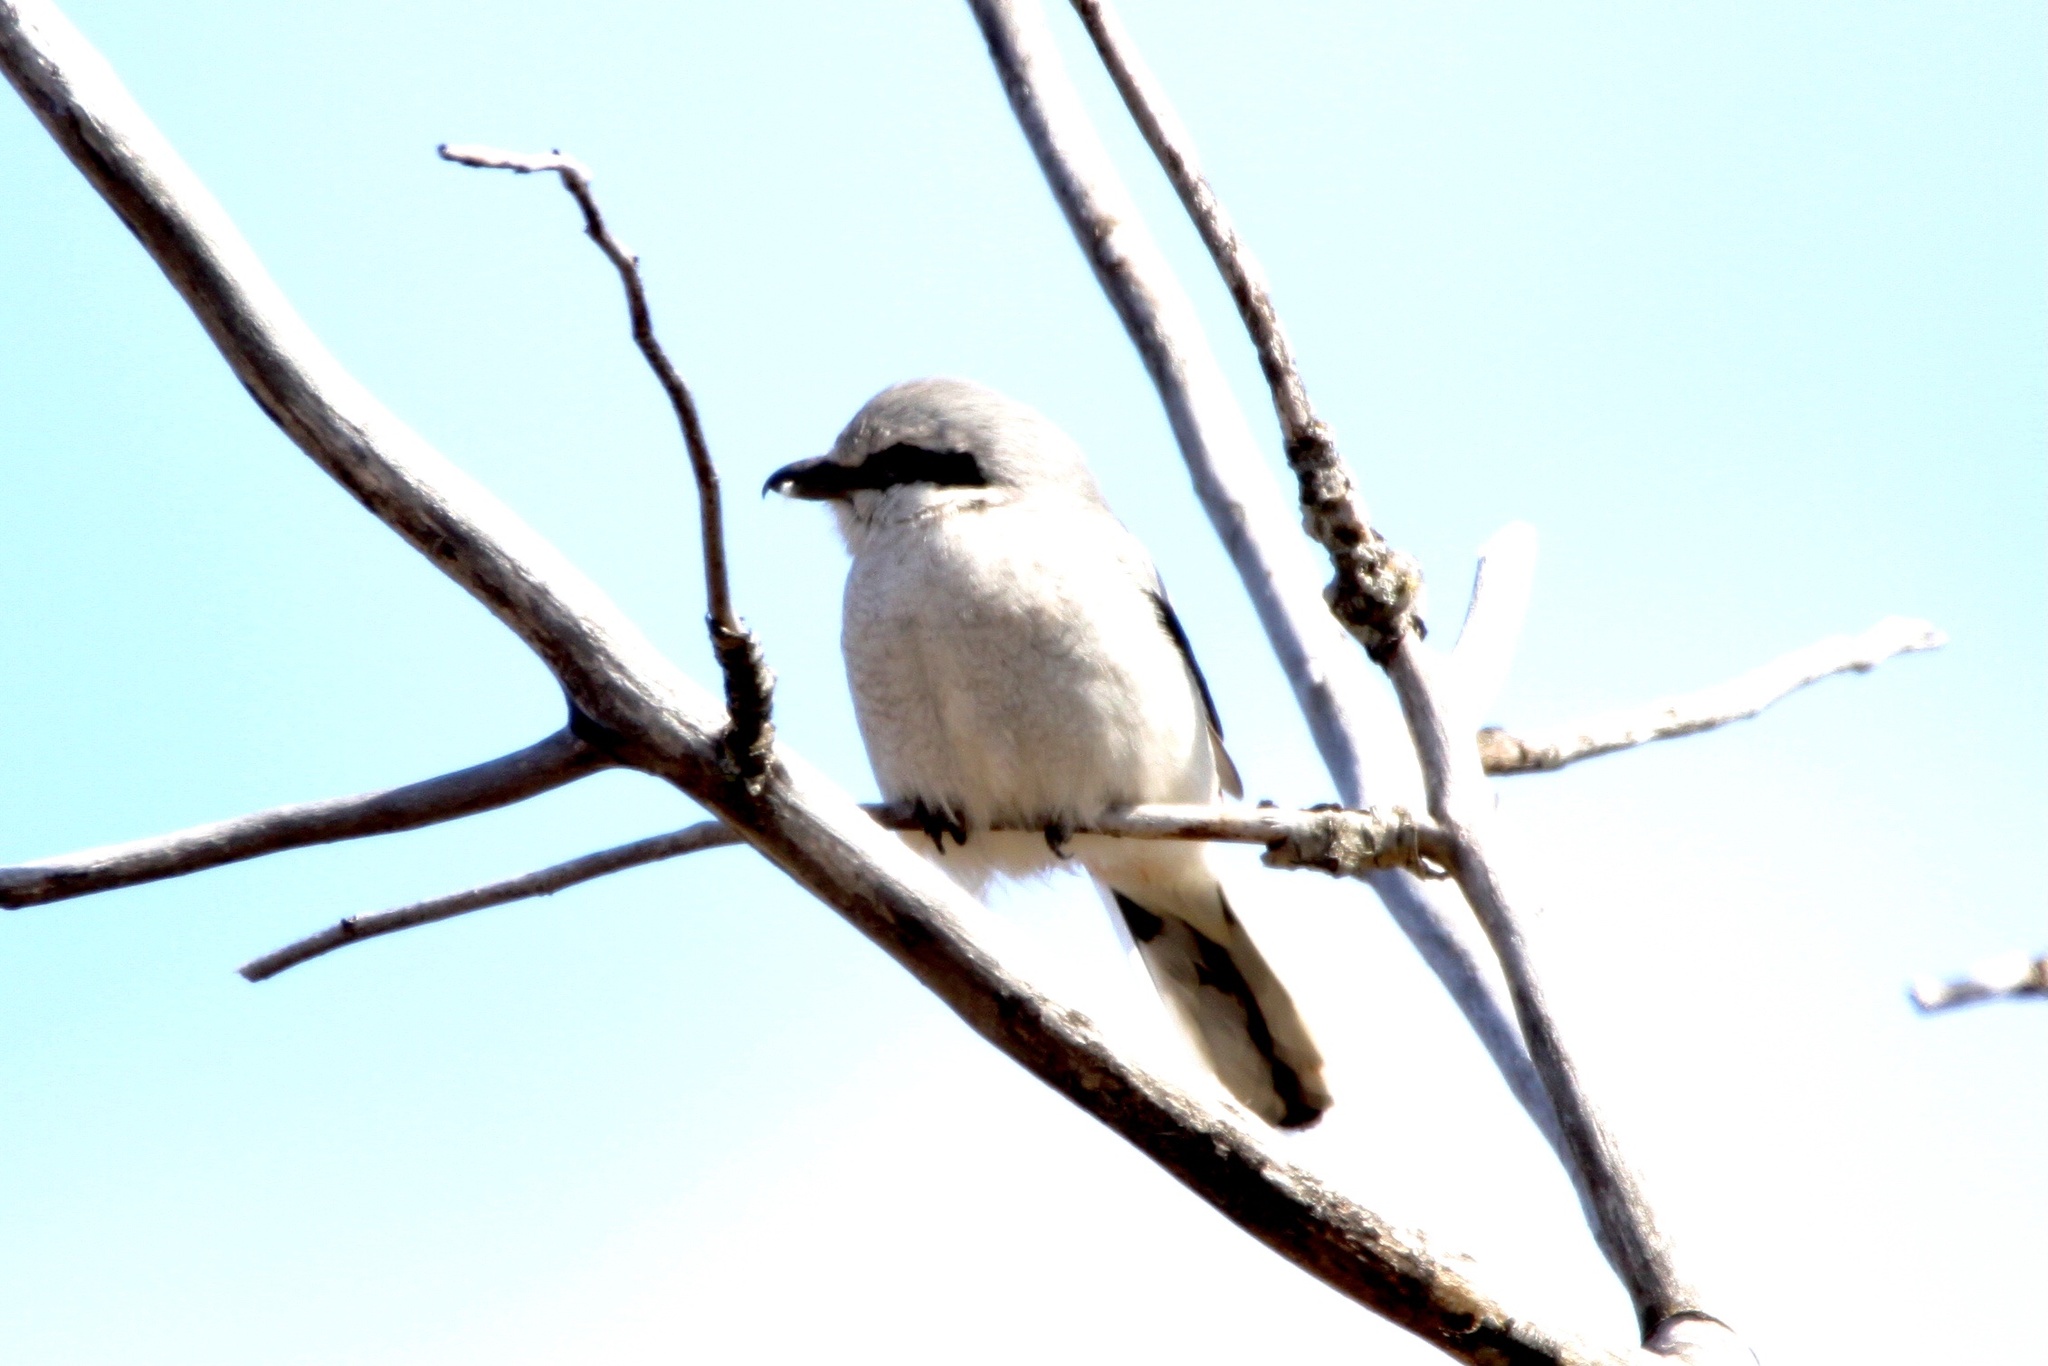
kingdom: Animalia
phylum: Chordata
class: Aves
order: Passeriformes
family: Laniidae
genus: Lanius
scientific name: Lanius borealis
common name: Northern shrike
